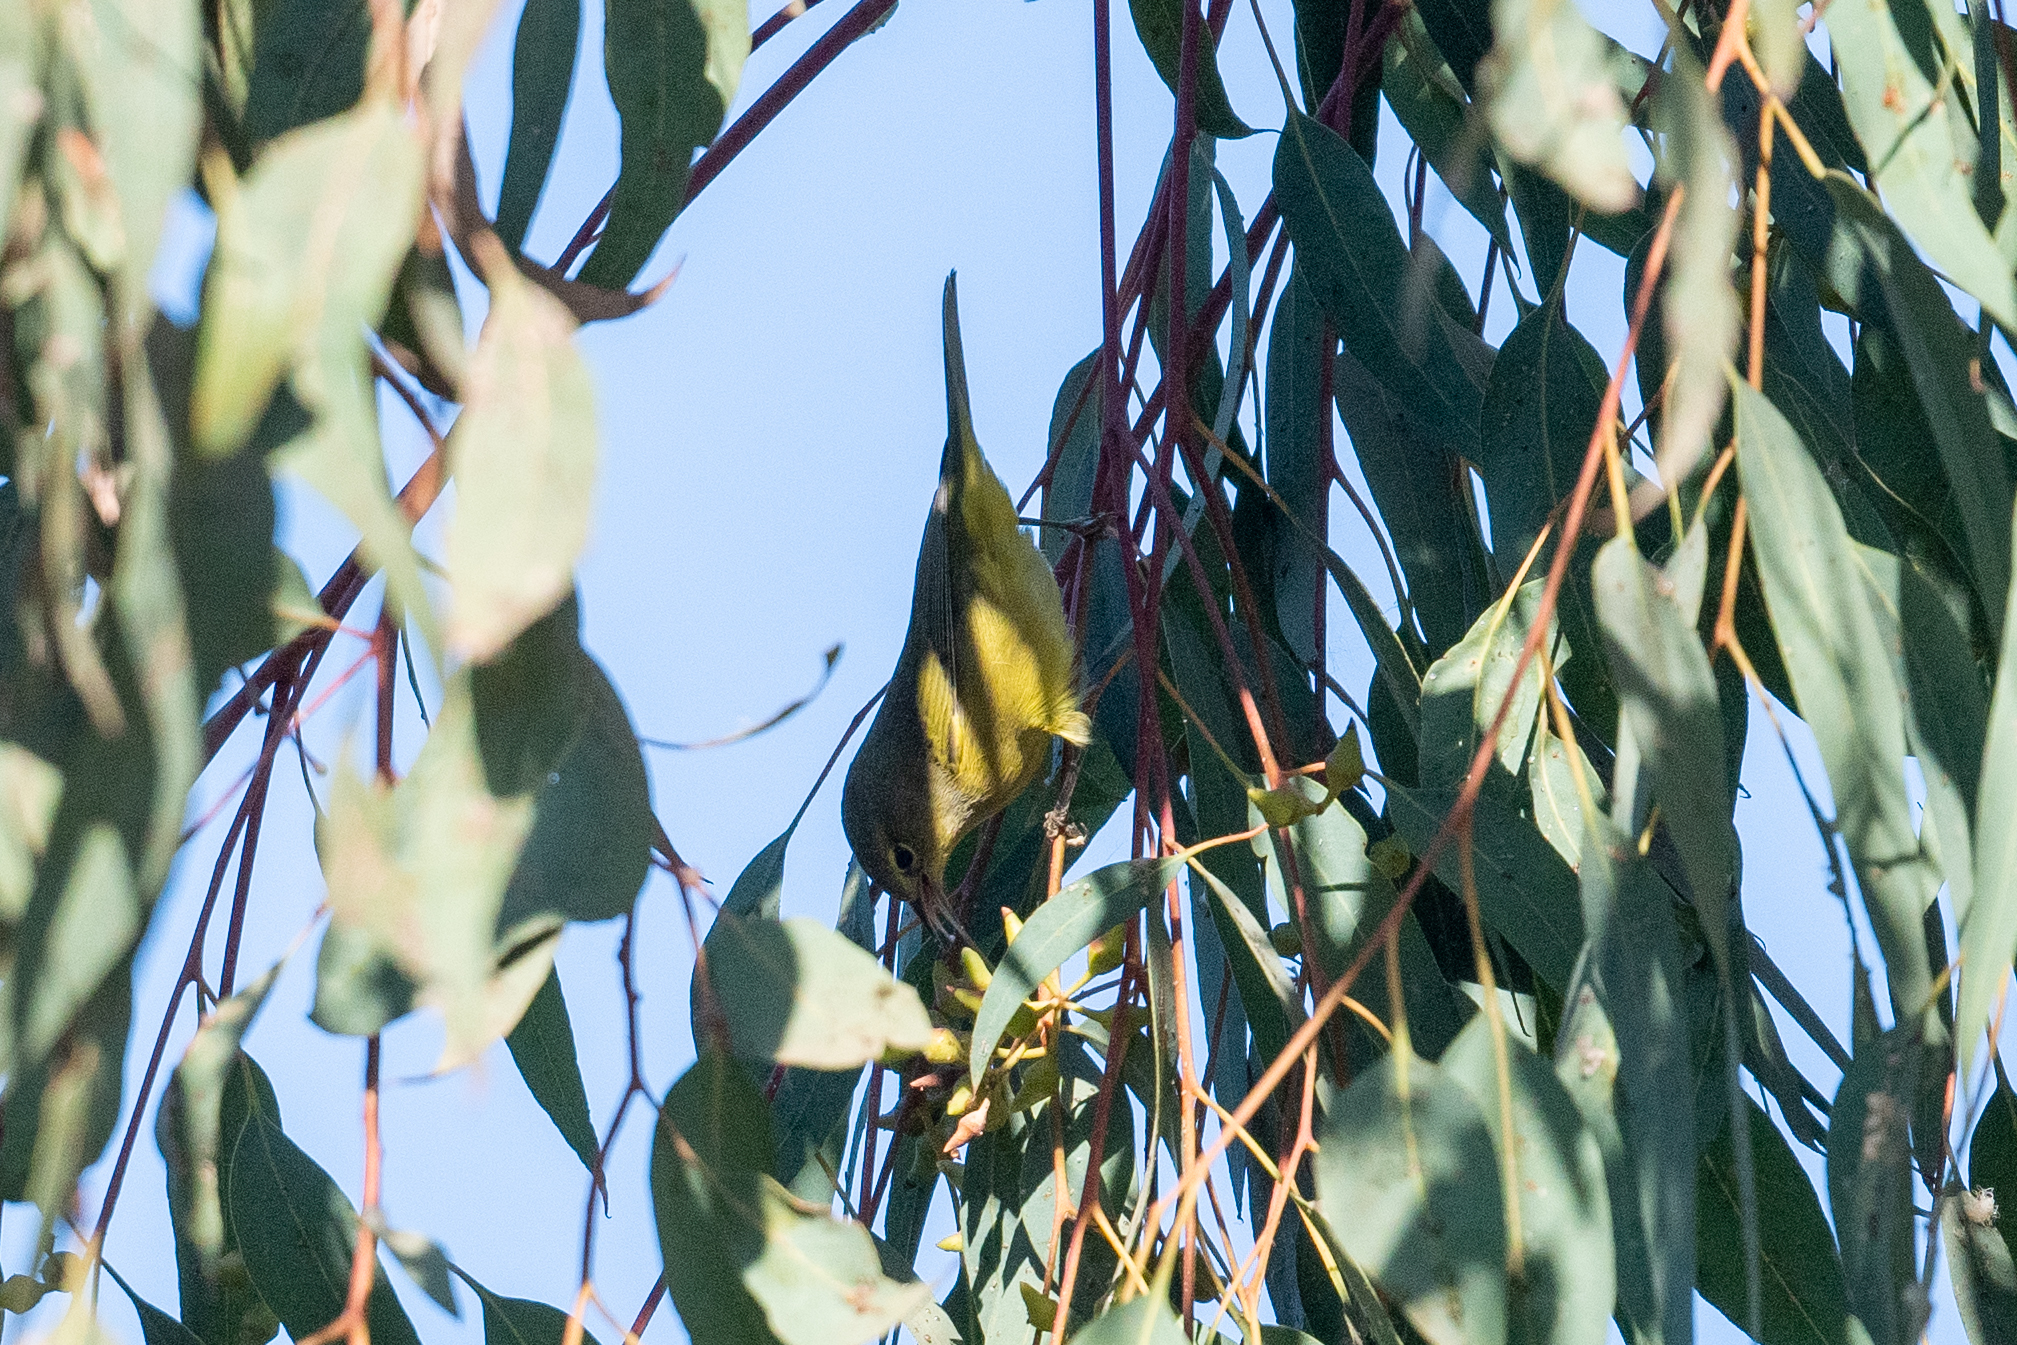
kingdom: Animalia
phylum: Chordata
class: Aves
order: Passeriformes
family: Parulidae
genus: Leiothlypis
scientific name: Leiothlypis celata
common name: Orange-crowned warbler
